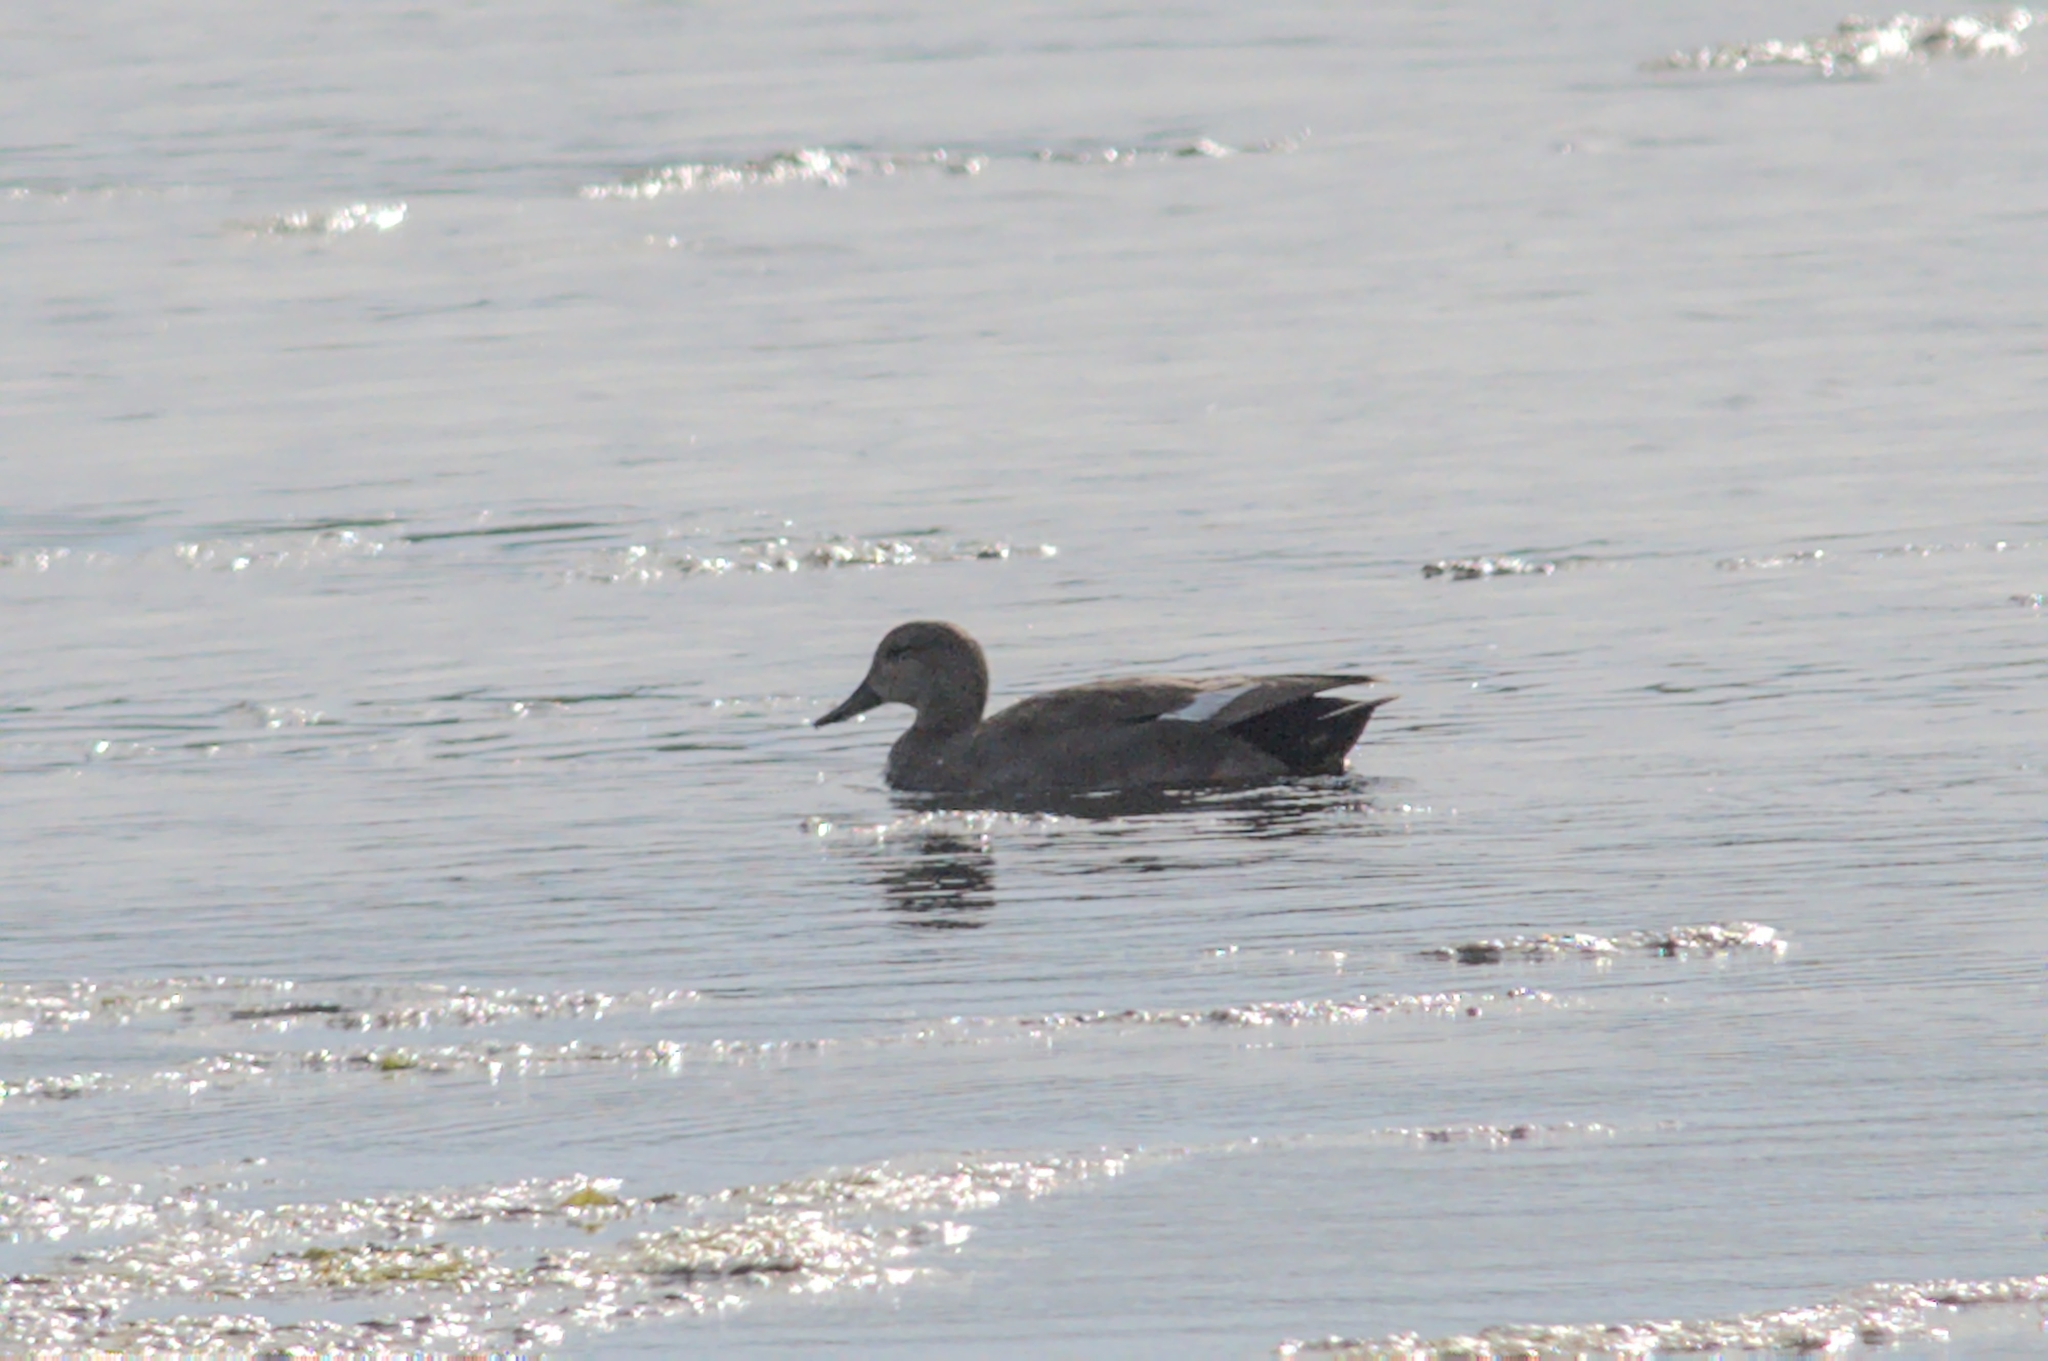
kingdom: Animalia
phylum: Chordata
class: Aves
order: Anseriformes
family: Anatidae
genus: Mareca
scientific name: Mareca strepera
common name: Gadwall
